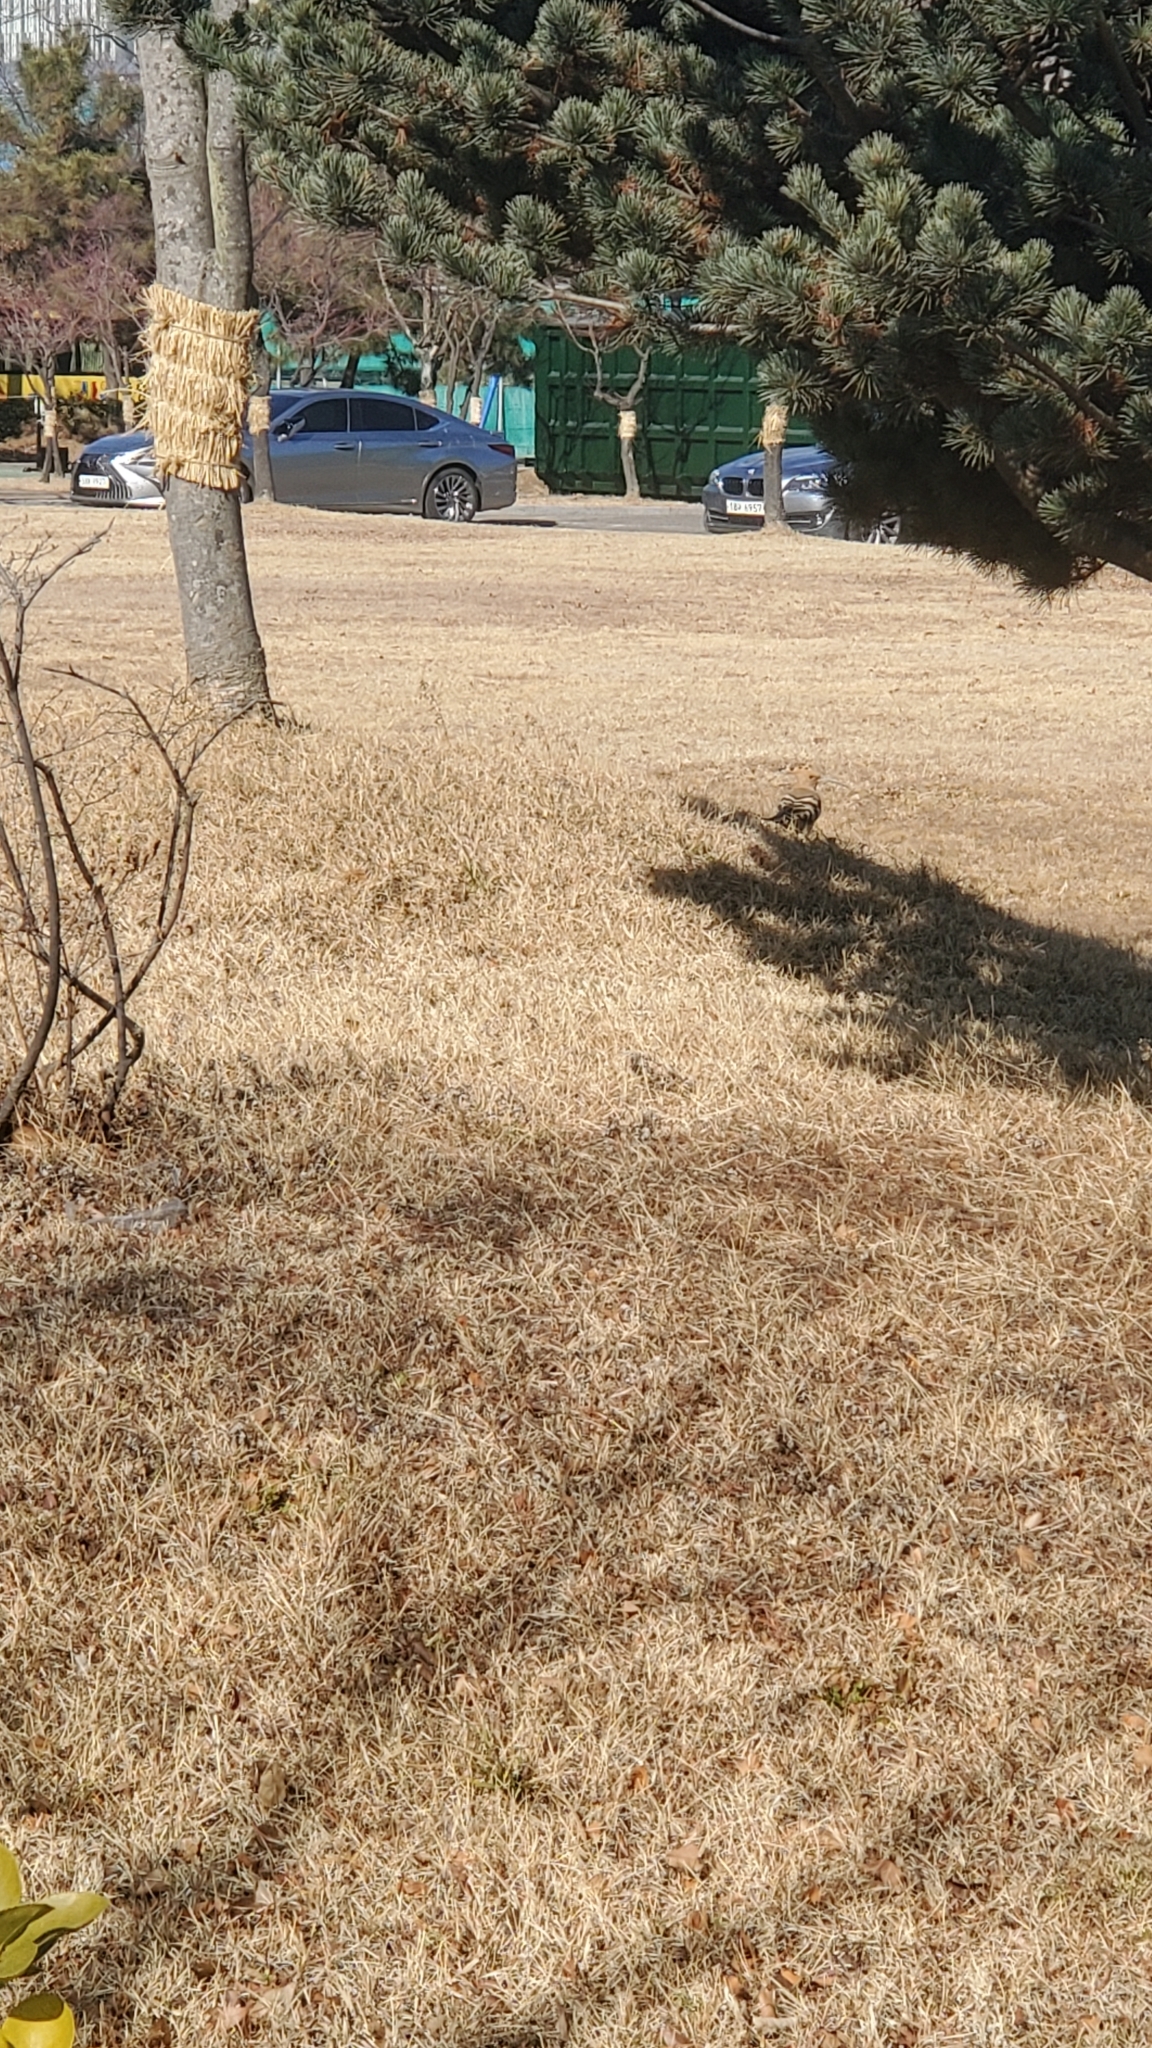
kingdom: Animalia
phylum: Chordata
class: Aves
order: Bucerotiformes
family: Upupidae
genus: Upupa
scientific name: Upupa epops
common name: Eurasian hoopoe
